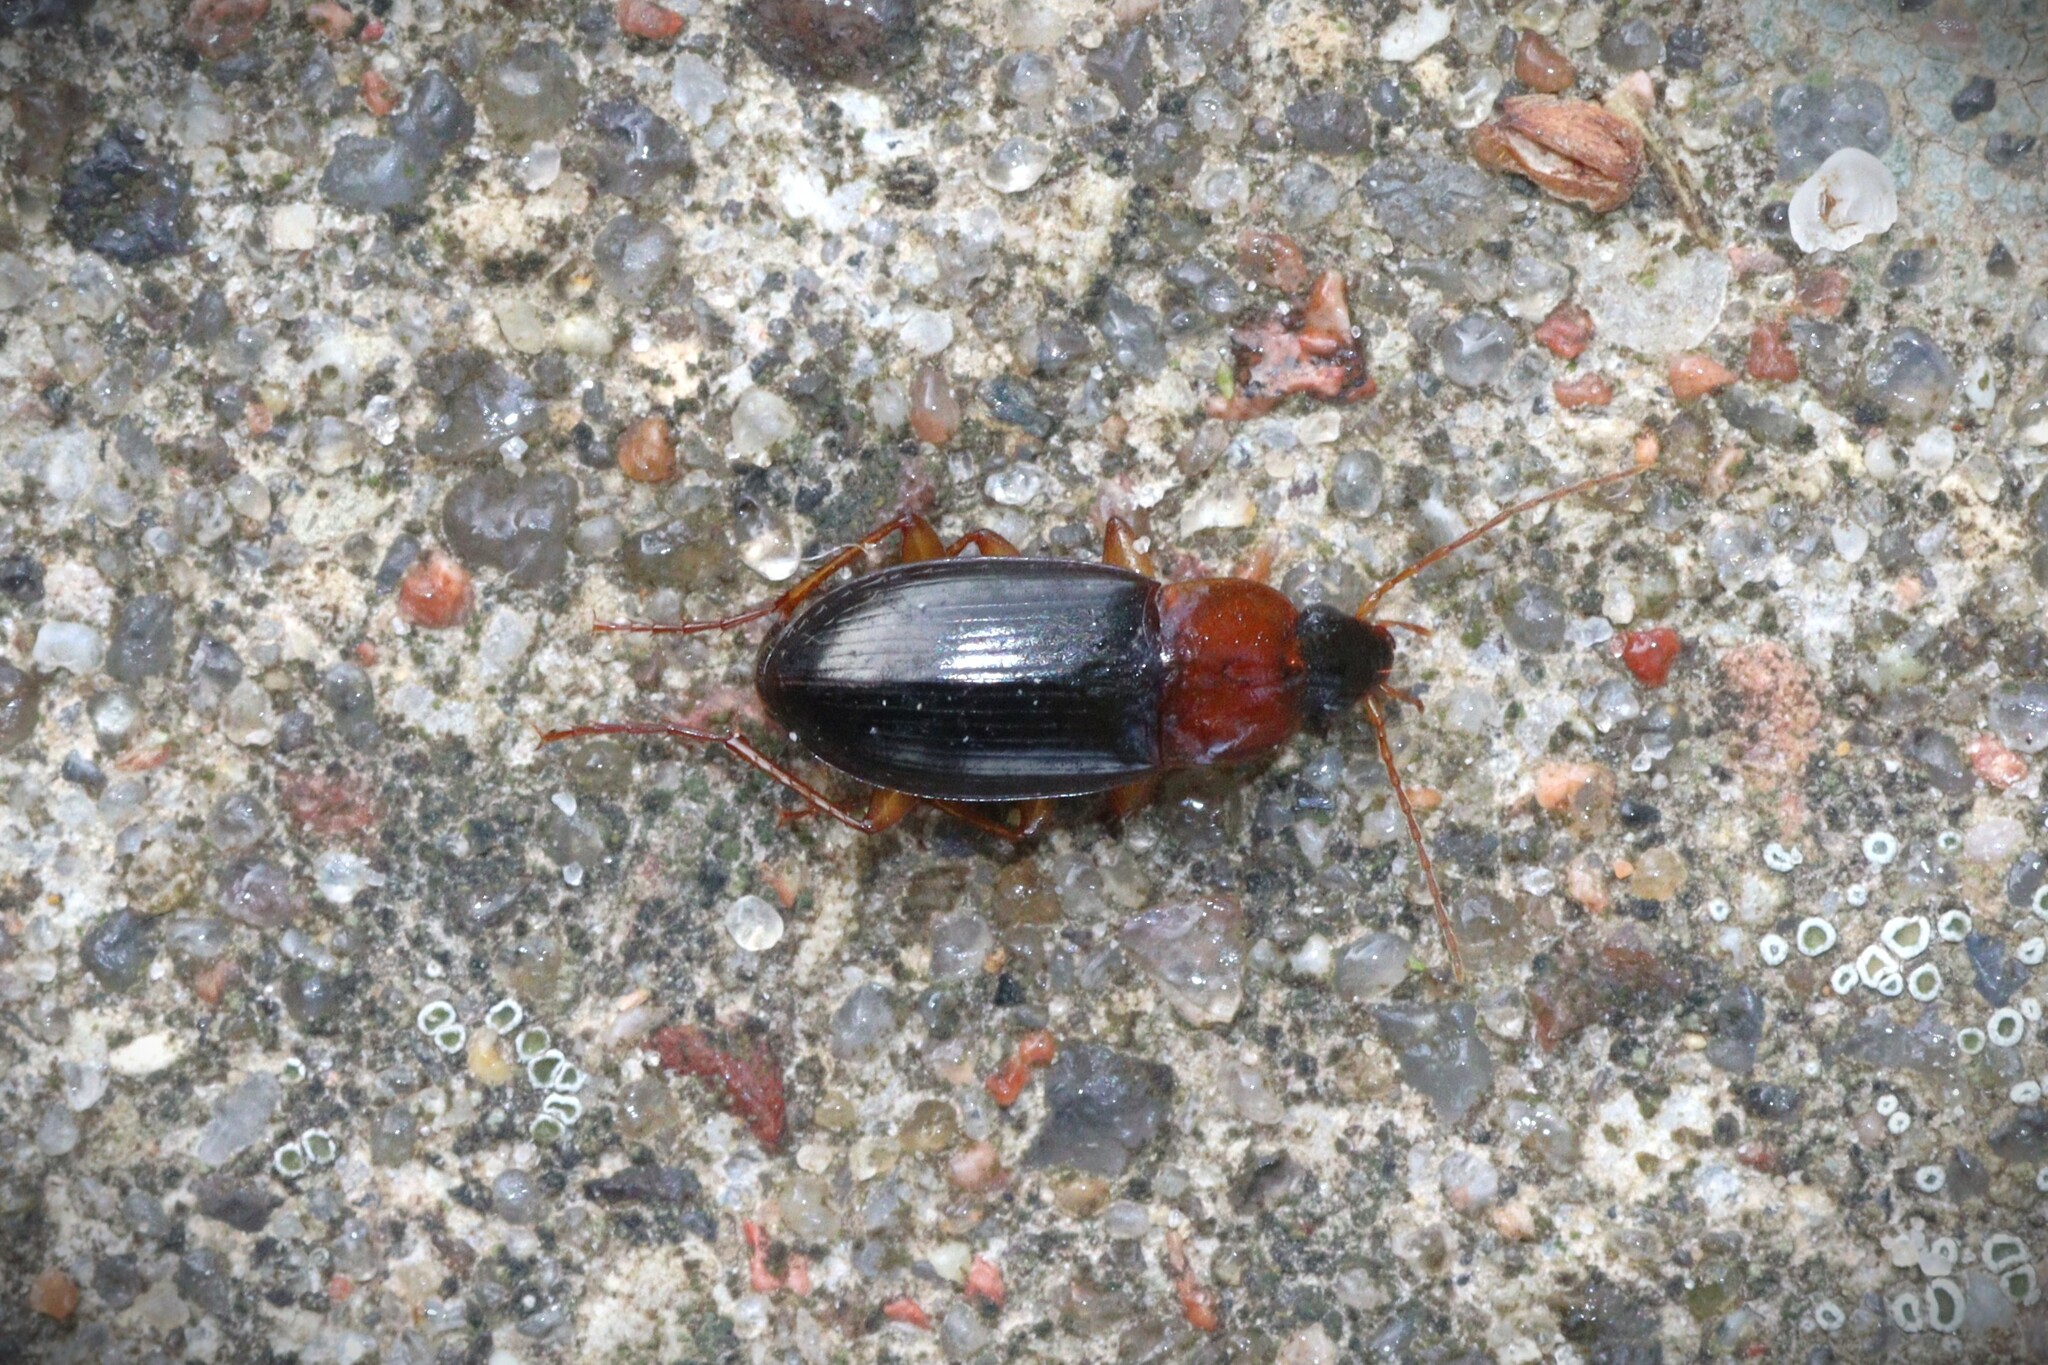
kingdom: Animalia
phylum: Arthropoda
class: Insecta
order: Coleoptera
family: Carabidae
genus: Calathus
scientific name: Calathus melanocephalus
